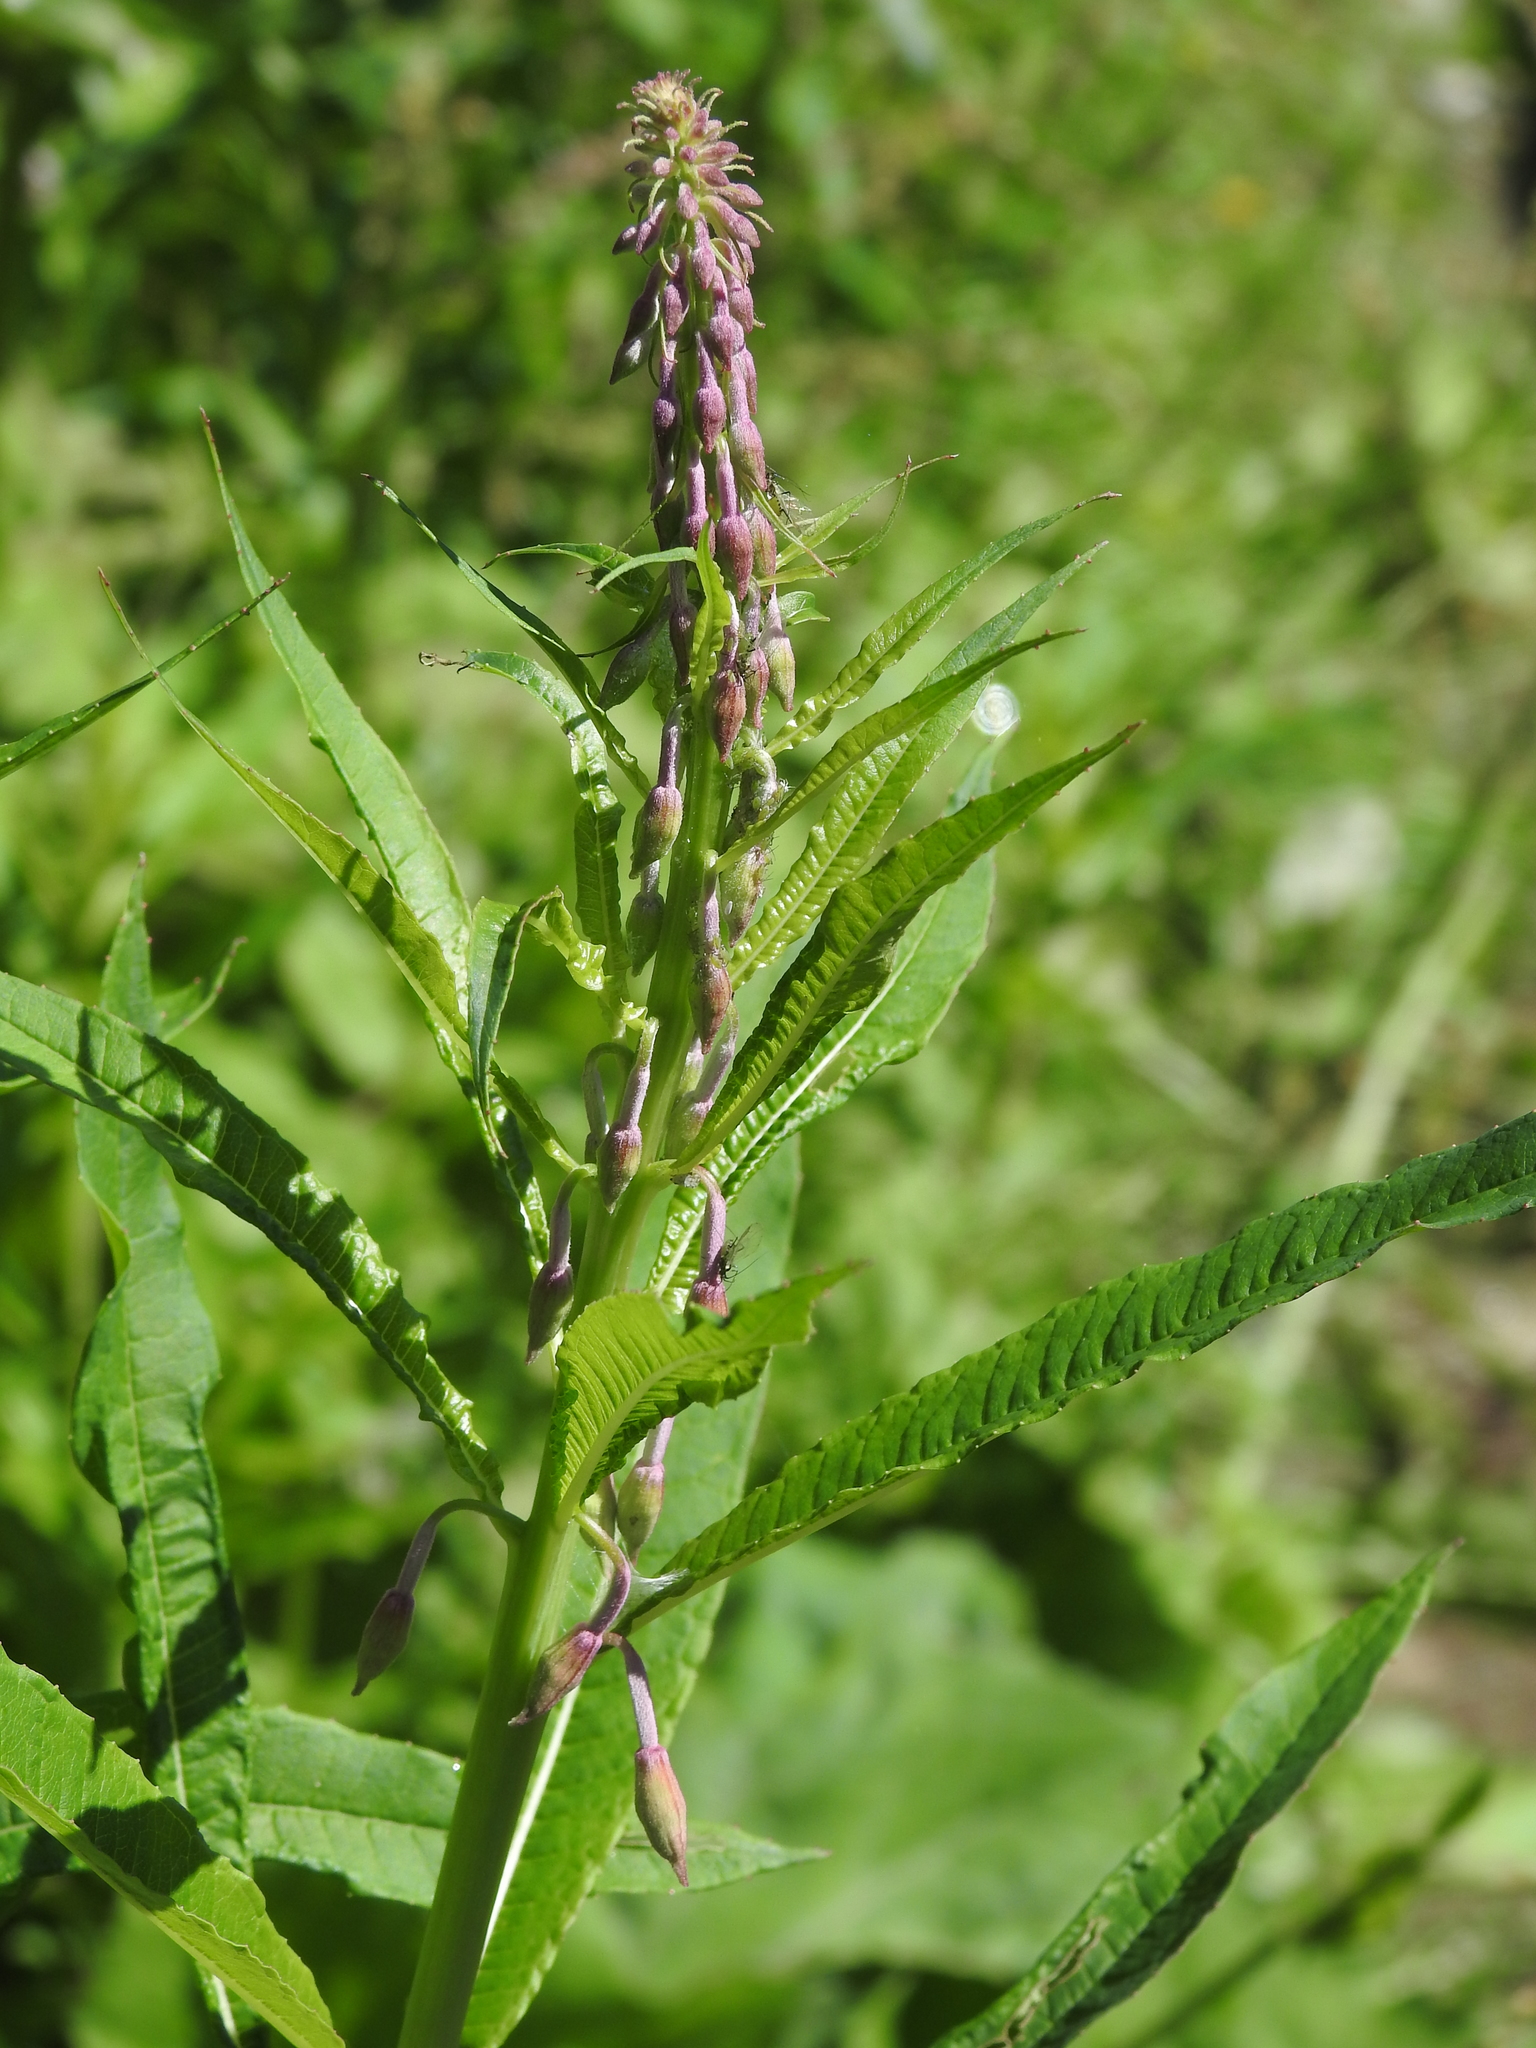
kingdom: Plantae
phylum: Tracheophyta
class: Magnoliopsida
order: Myrtales
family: Onagraceae
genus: Chamaenerion
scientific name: Chamaenerion angustifolium
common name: Fireweed
